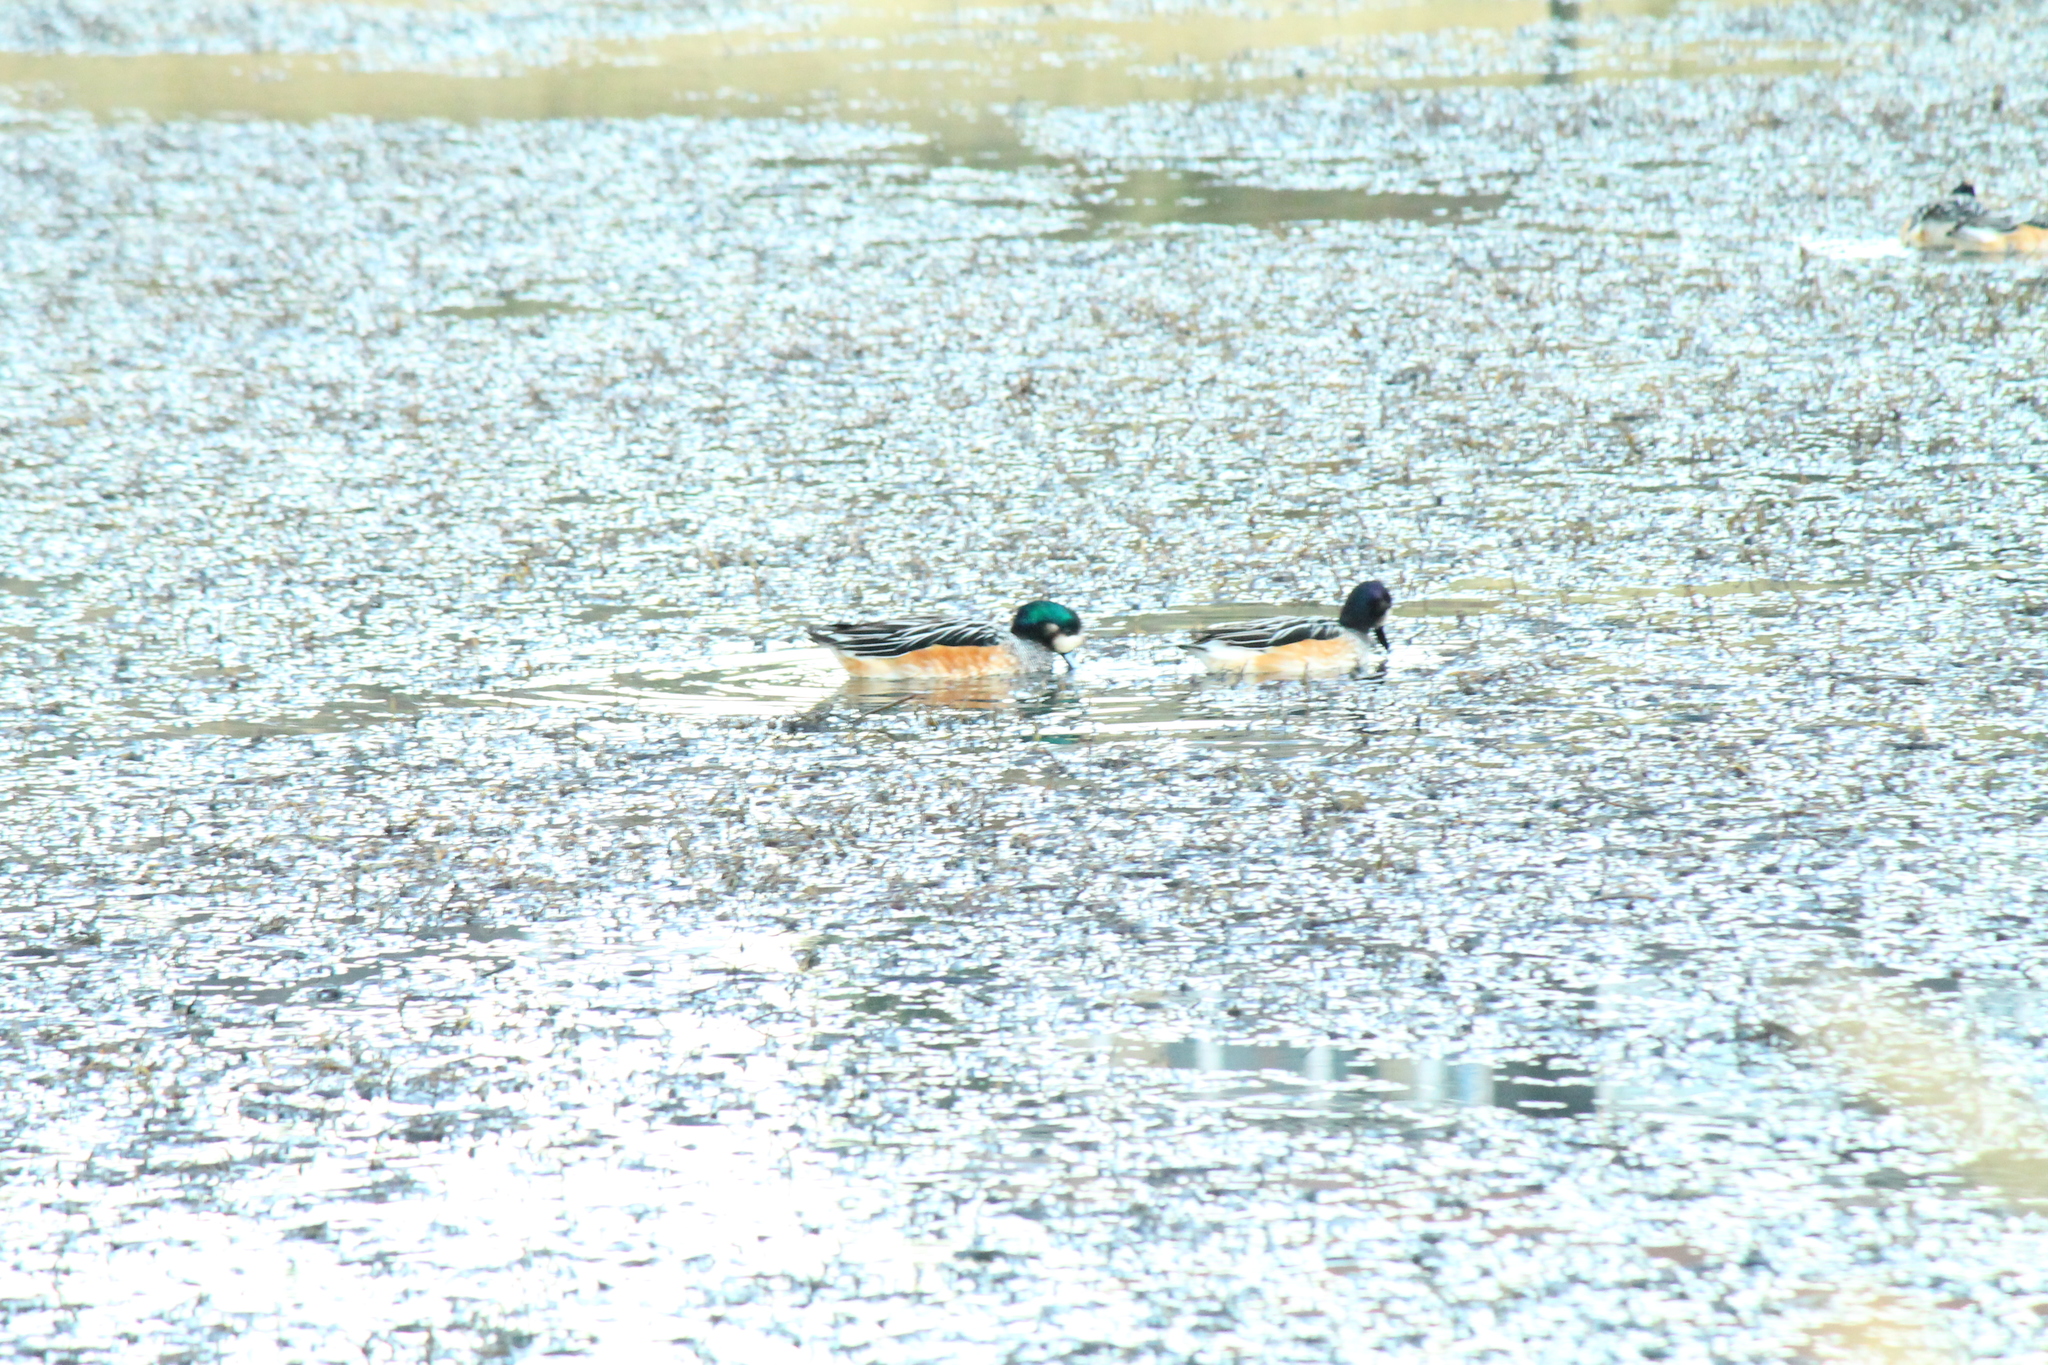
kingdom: Animalia
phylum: Chordata
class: Aves
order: Anseriformes
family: Anatidae
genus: Mareca
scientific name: Mareca sibilatrix
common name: Chiloe wigeon
